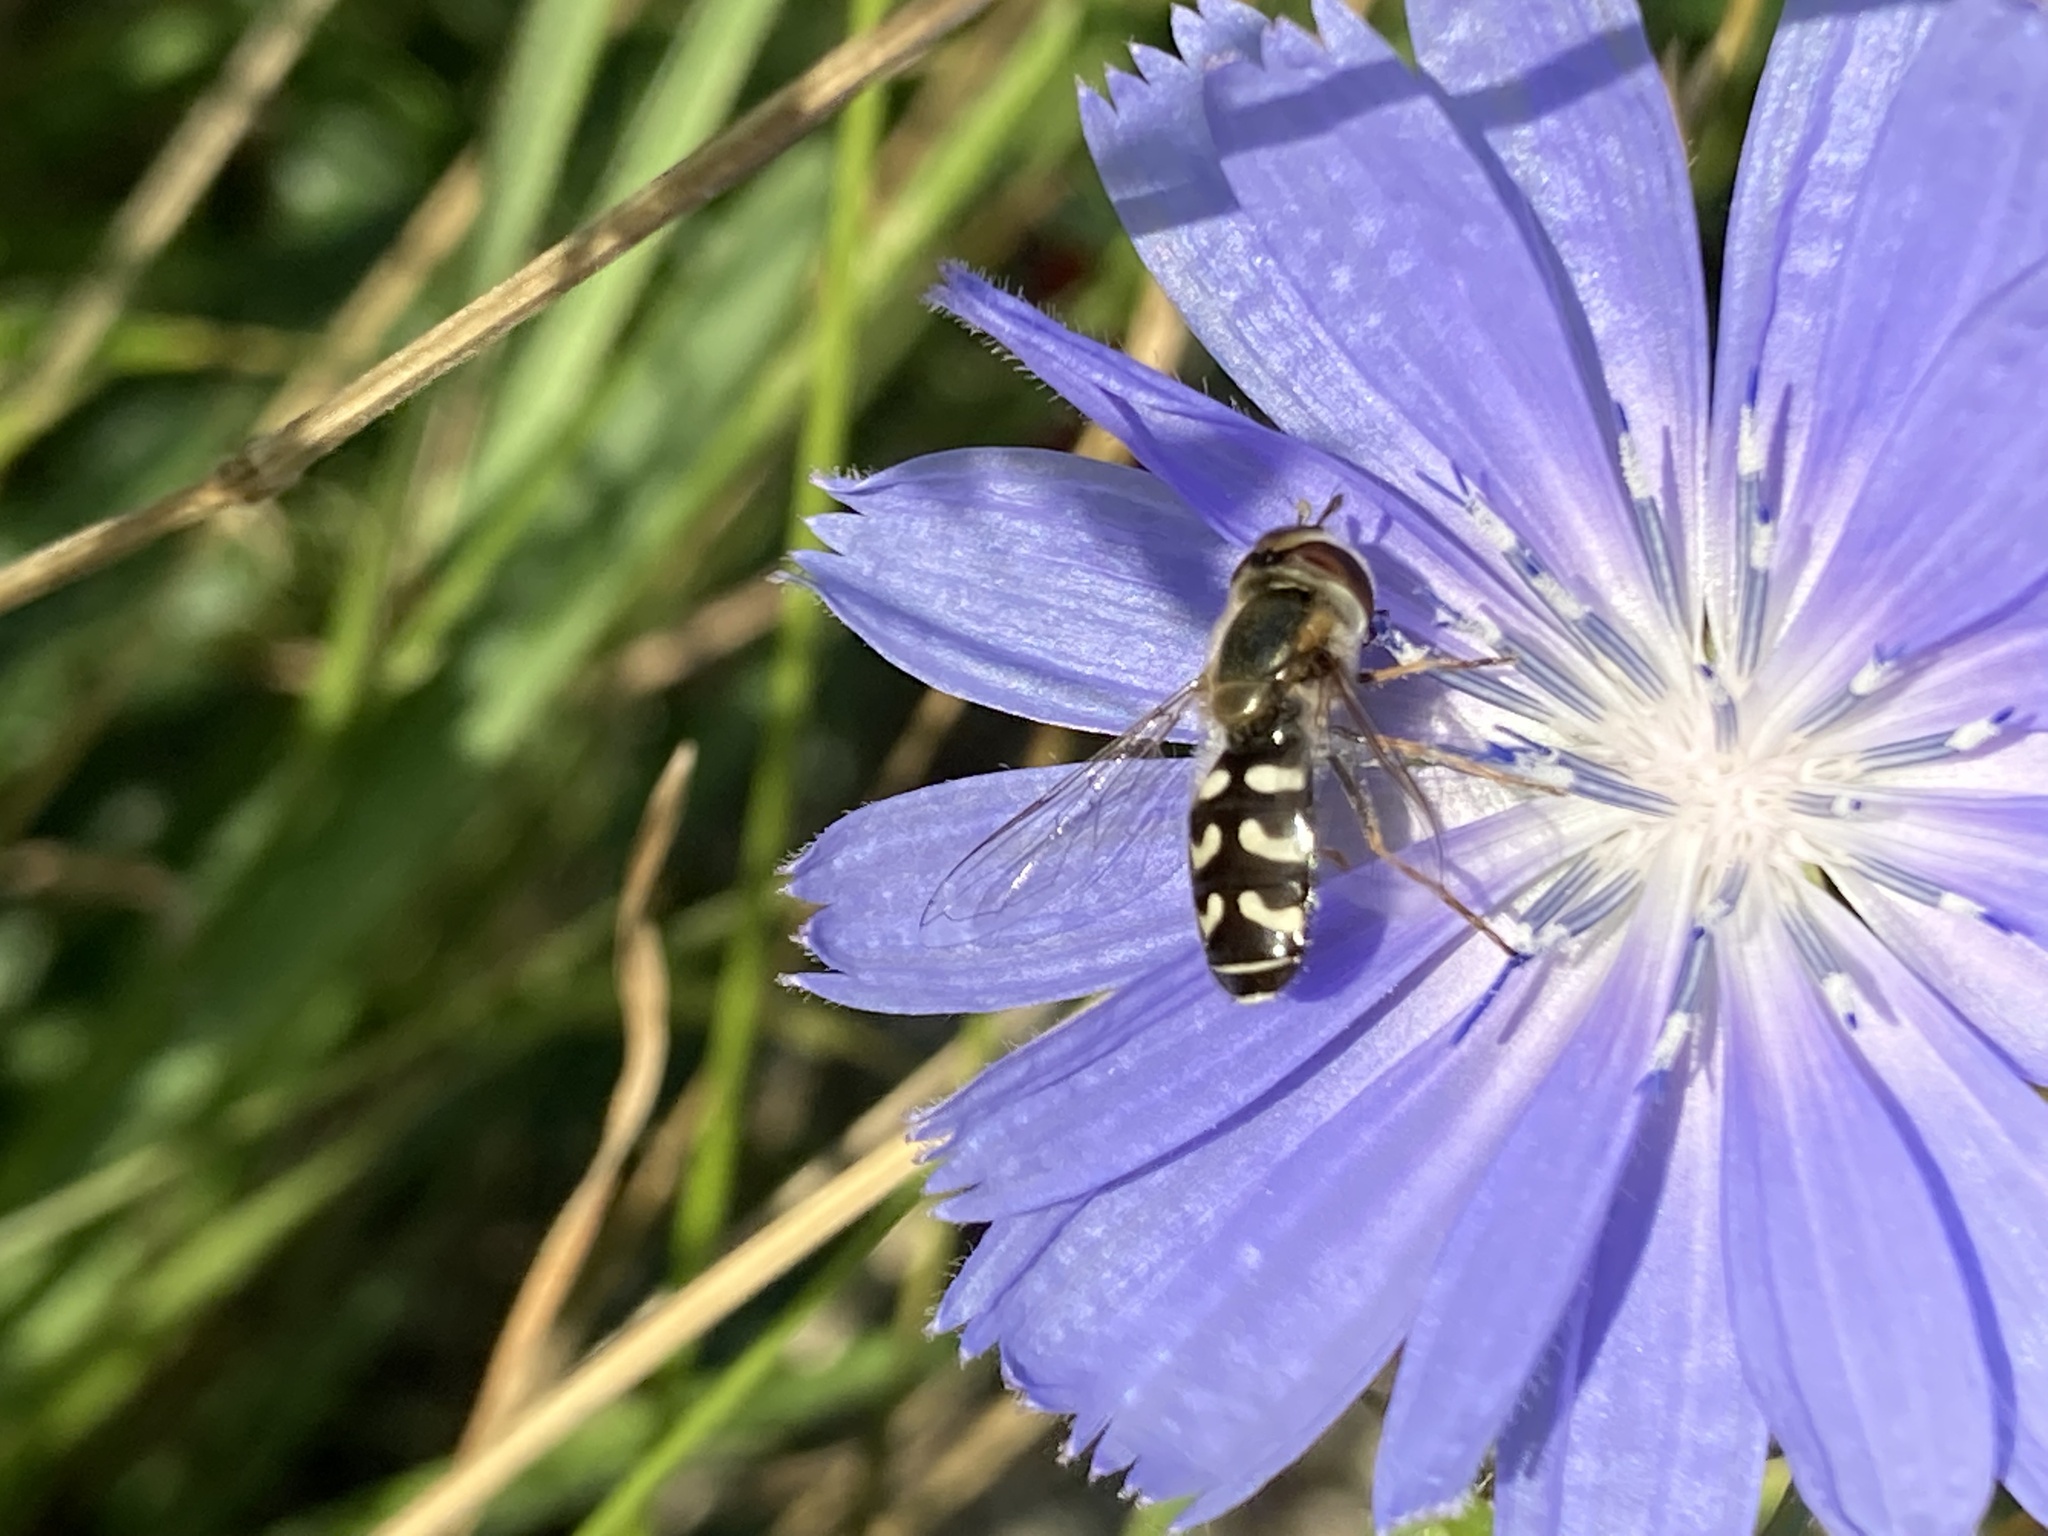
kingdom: Animalia
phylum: Arthropoda
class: Insecta
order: Diptera
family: Syrphidae
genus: Scaeva
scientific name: Scaeva pyrastri
